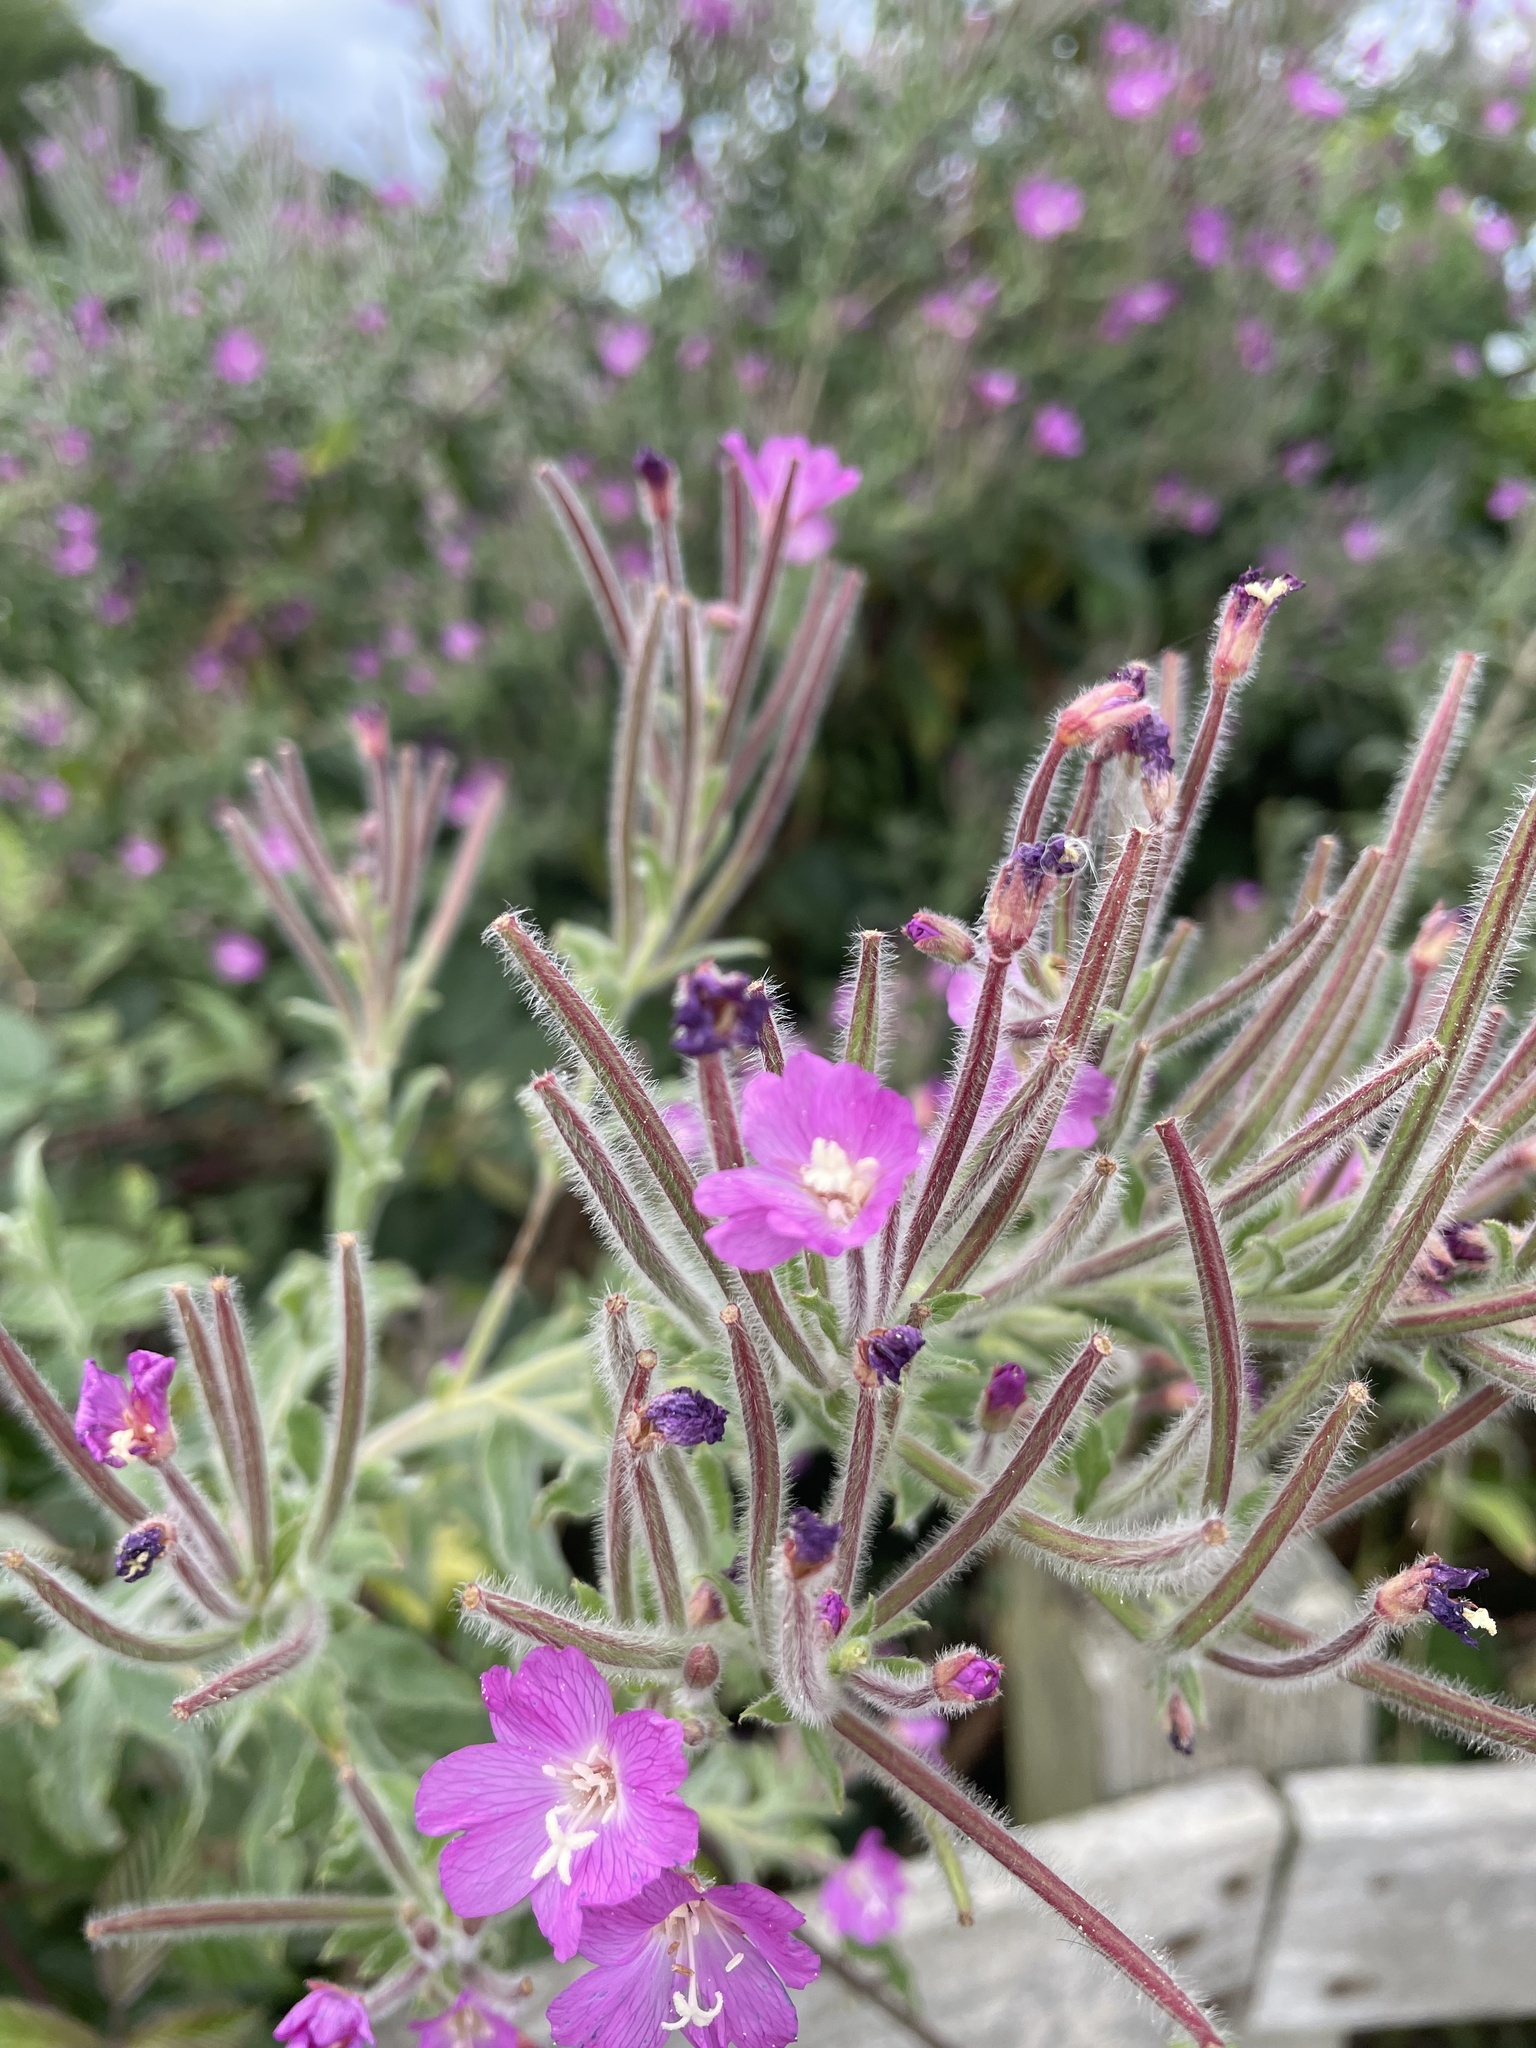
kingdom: Plantae
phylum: Tracheophyta
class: Magnoliopsida
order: Myrtales
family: Onagraceae
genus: Epilobium
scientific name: Epilobium hirsutum
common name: Great willowherb
